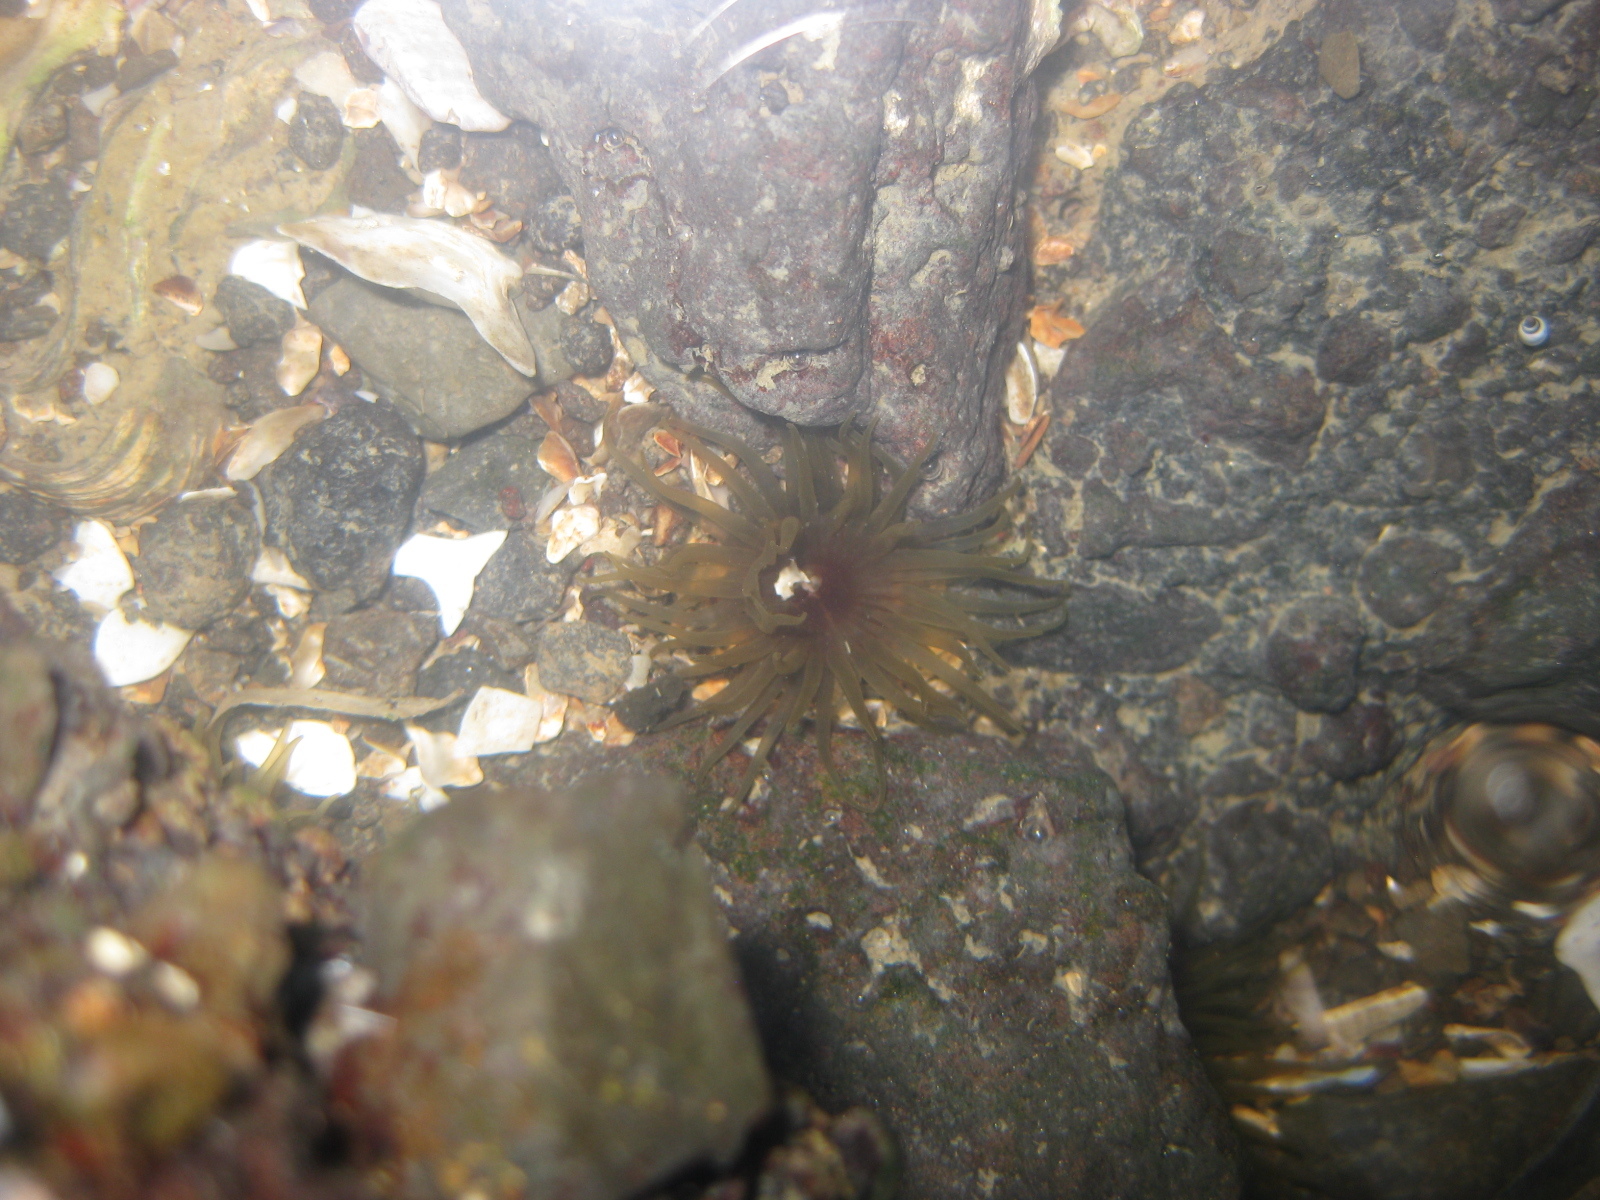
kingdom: Animalia
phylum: Cnidaria
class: Anthozoa
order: Actiniaria
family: Actiniidae
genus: Isactinia
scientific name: Isactinia olivacea
